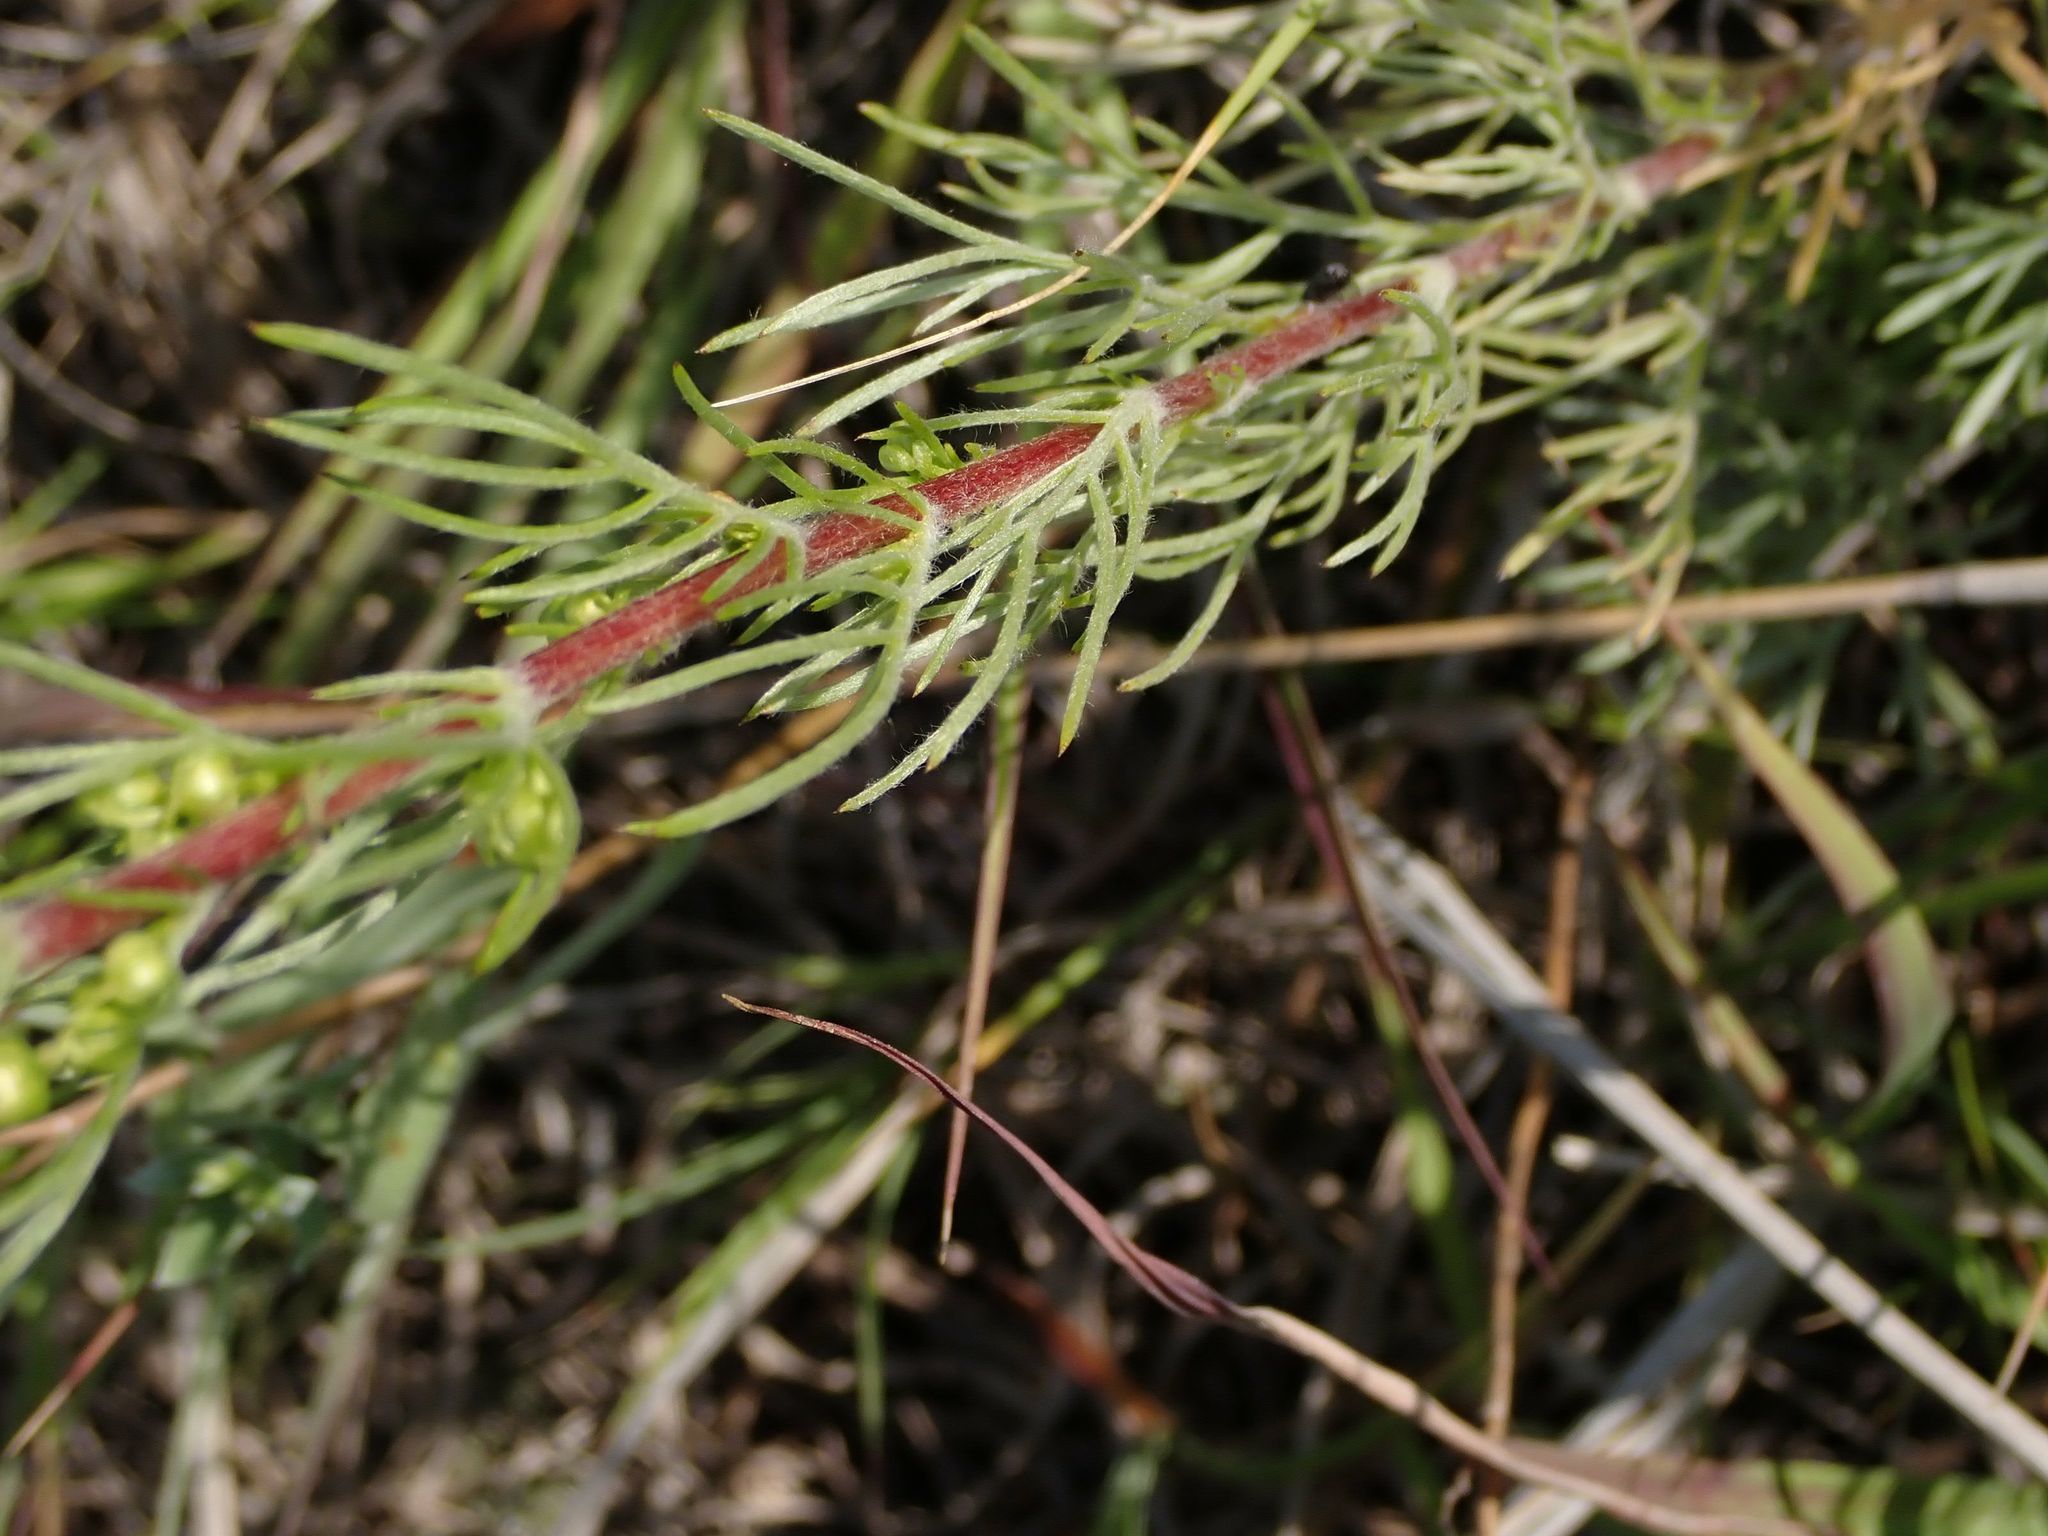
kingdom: Plantae
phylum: Tracheophyta
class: Magnoliopsida
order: Asterales
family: Asteraceae
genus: Artemisia
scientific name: Artemisia campestris
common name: Field wormwood
